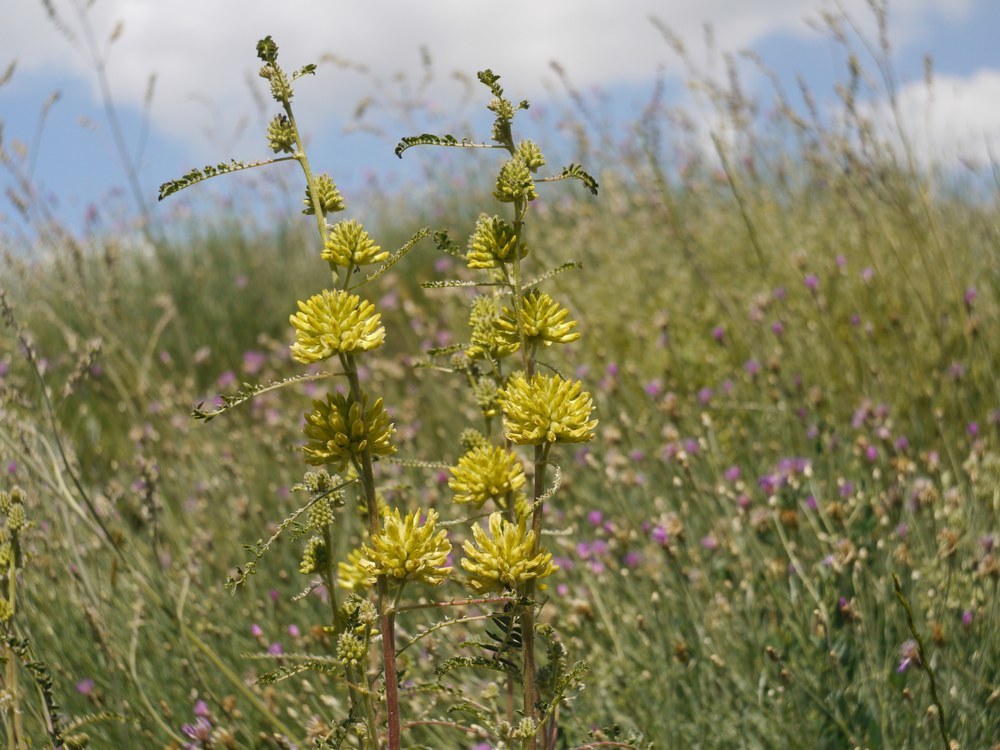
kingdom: Plantae
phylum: Tracheophyta
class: Magnoliopsida
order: Fabales
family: Fabaceae
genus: Astragalus
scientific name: Astragalus ponticus
